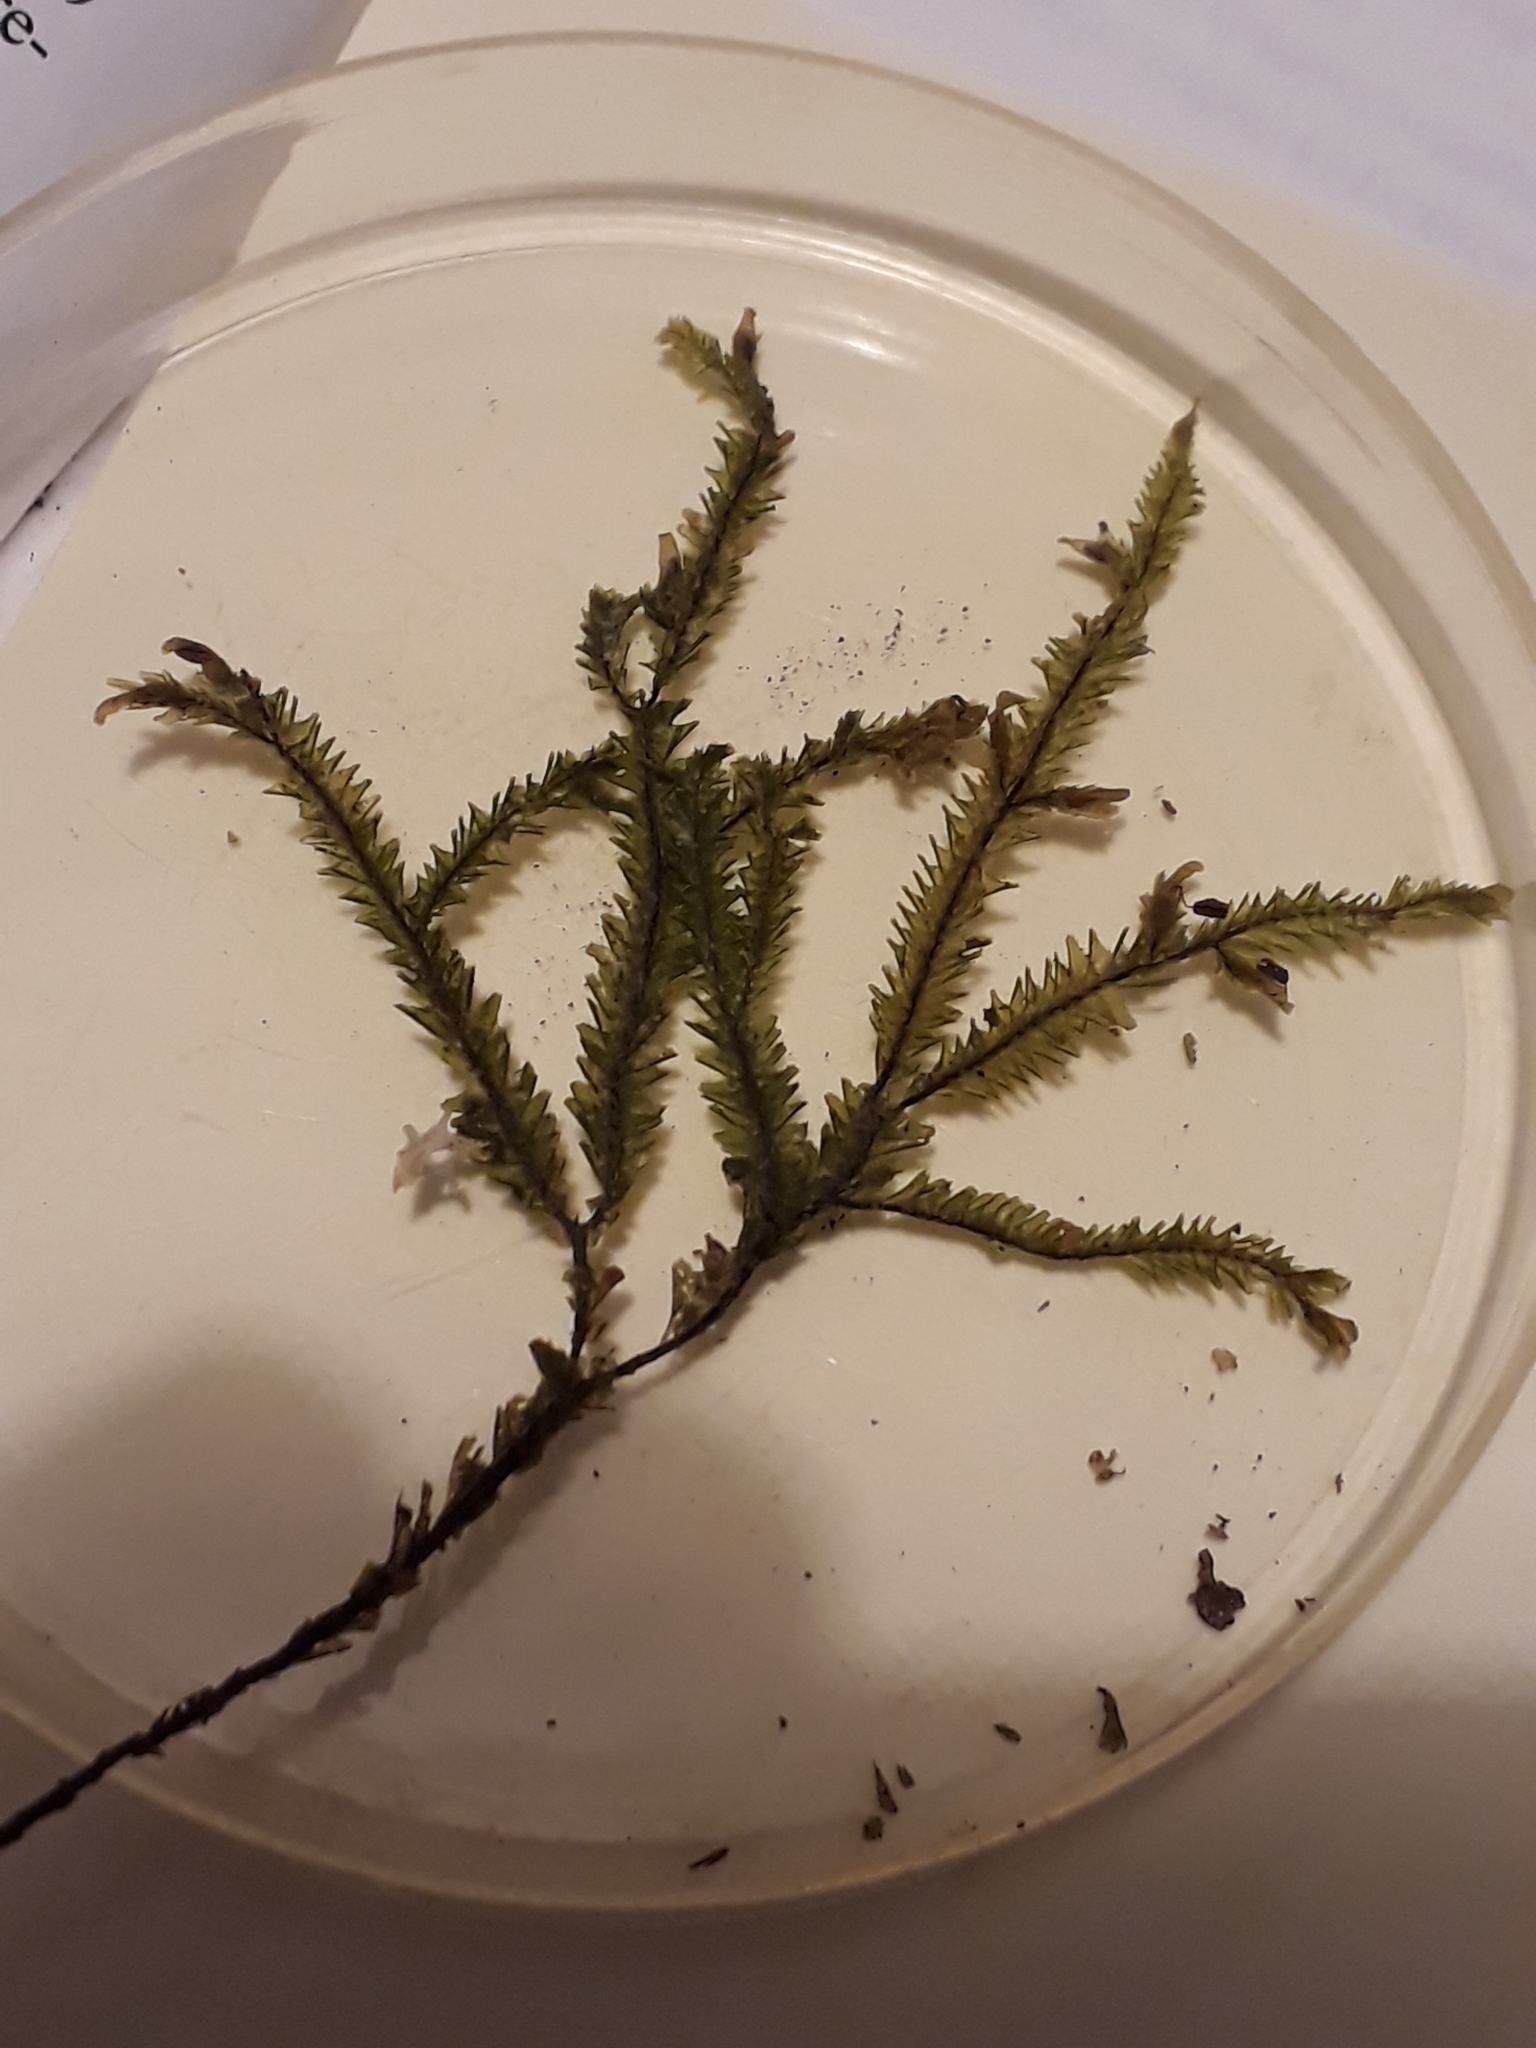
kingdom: Plantae
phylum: Marchantiophyta
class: Jungermanniopsida
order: Jungermanniales
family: Plagiochilaceae
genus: Plagiochila
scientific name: Plagiochila trispicata
